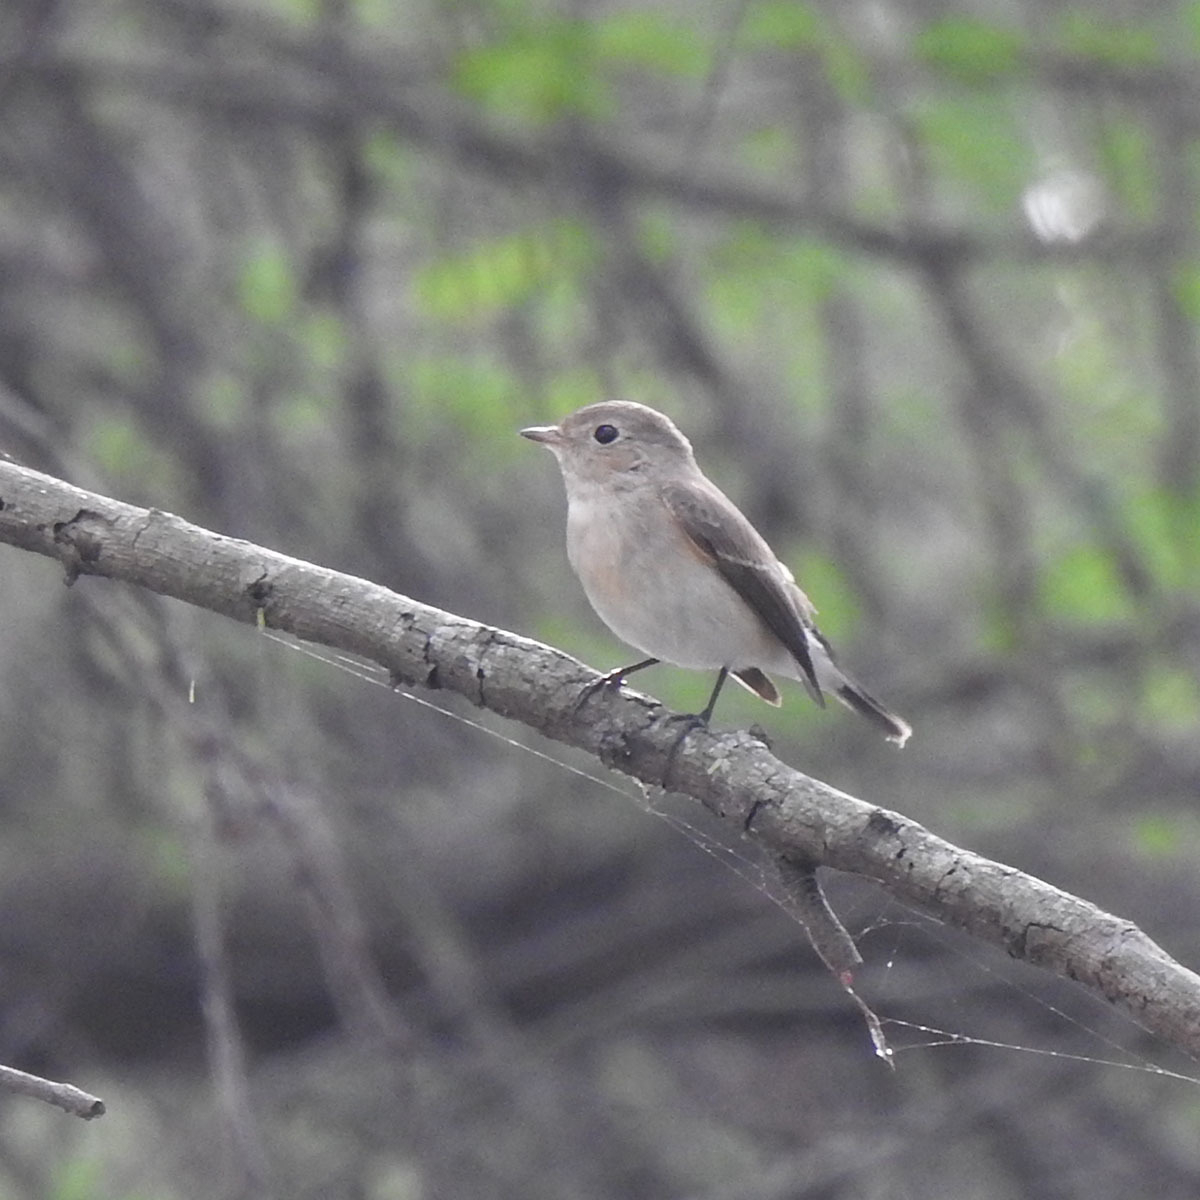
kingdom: Animalia
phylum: Chordata
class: Aves
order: Passeriformes
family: Muscicapidae
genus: Ficedula
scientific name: Ficedula albicilla
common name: Taiga flycatcher
